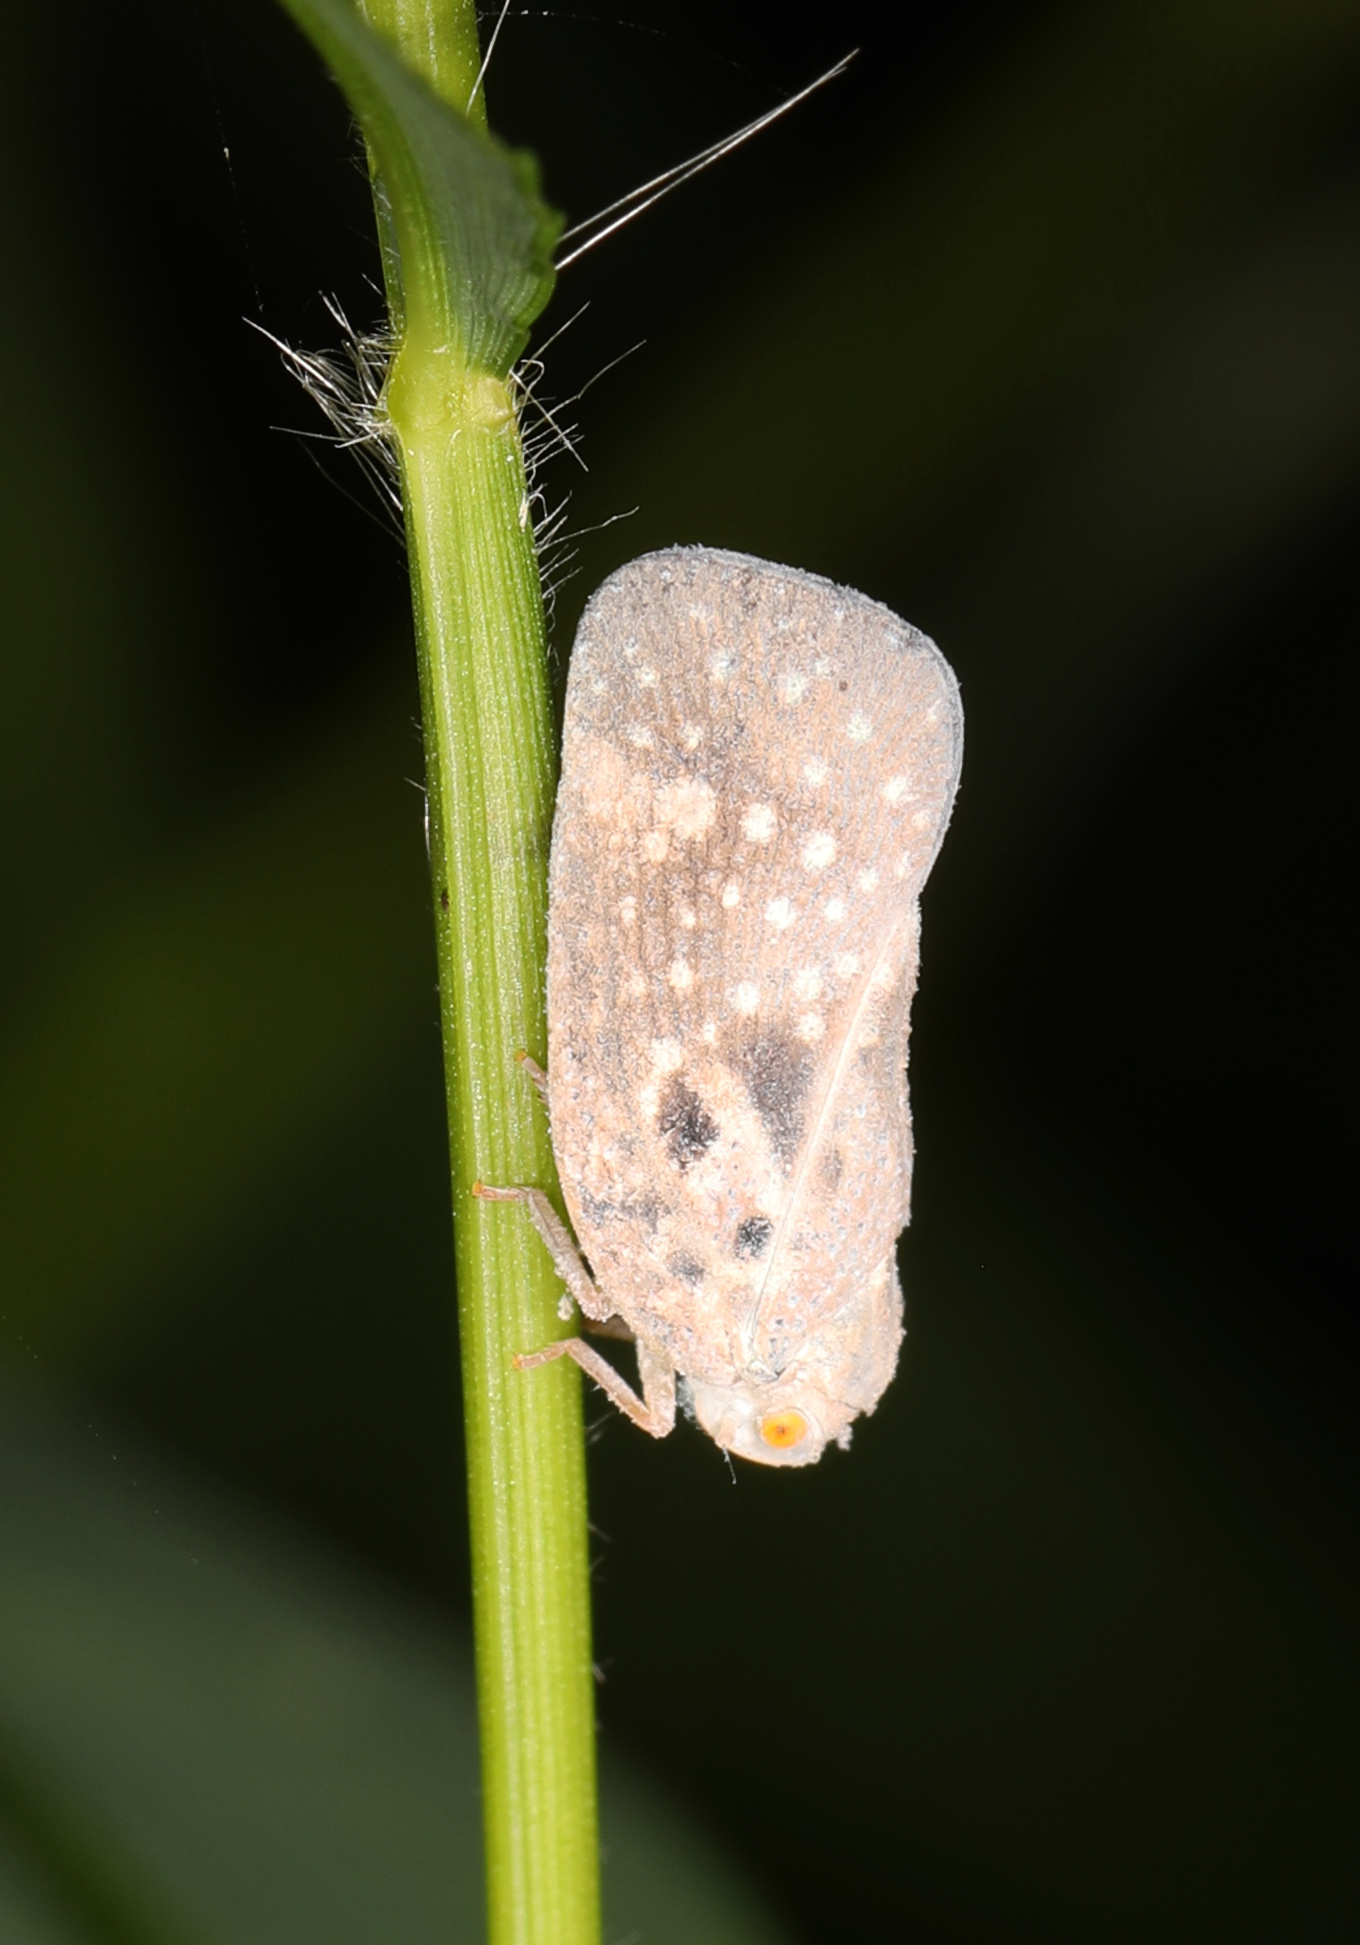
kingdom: Animalia
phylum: Arthropoda
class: Insecta
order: Hemiptera
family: Flatidae
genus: Metcalfa
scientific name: Metcalfa pruinosa
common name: Citrus flatid planthopper
